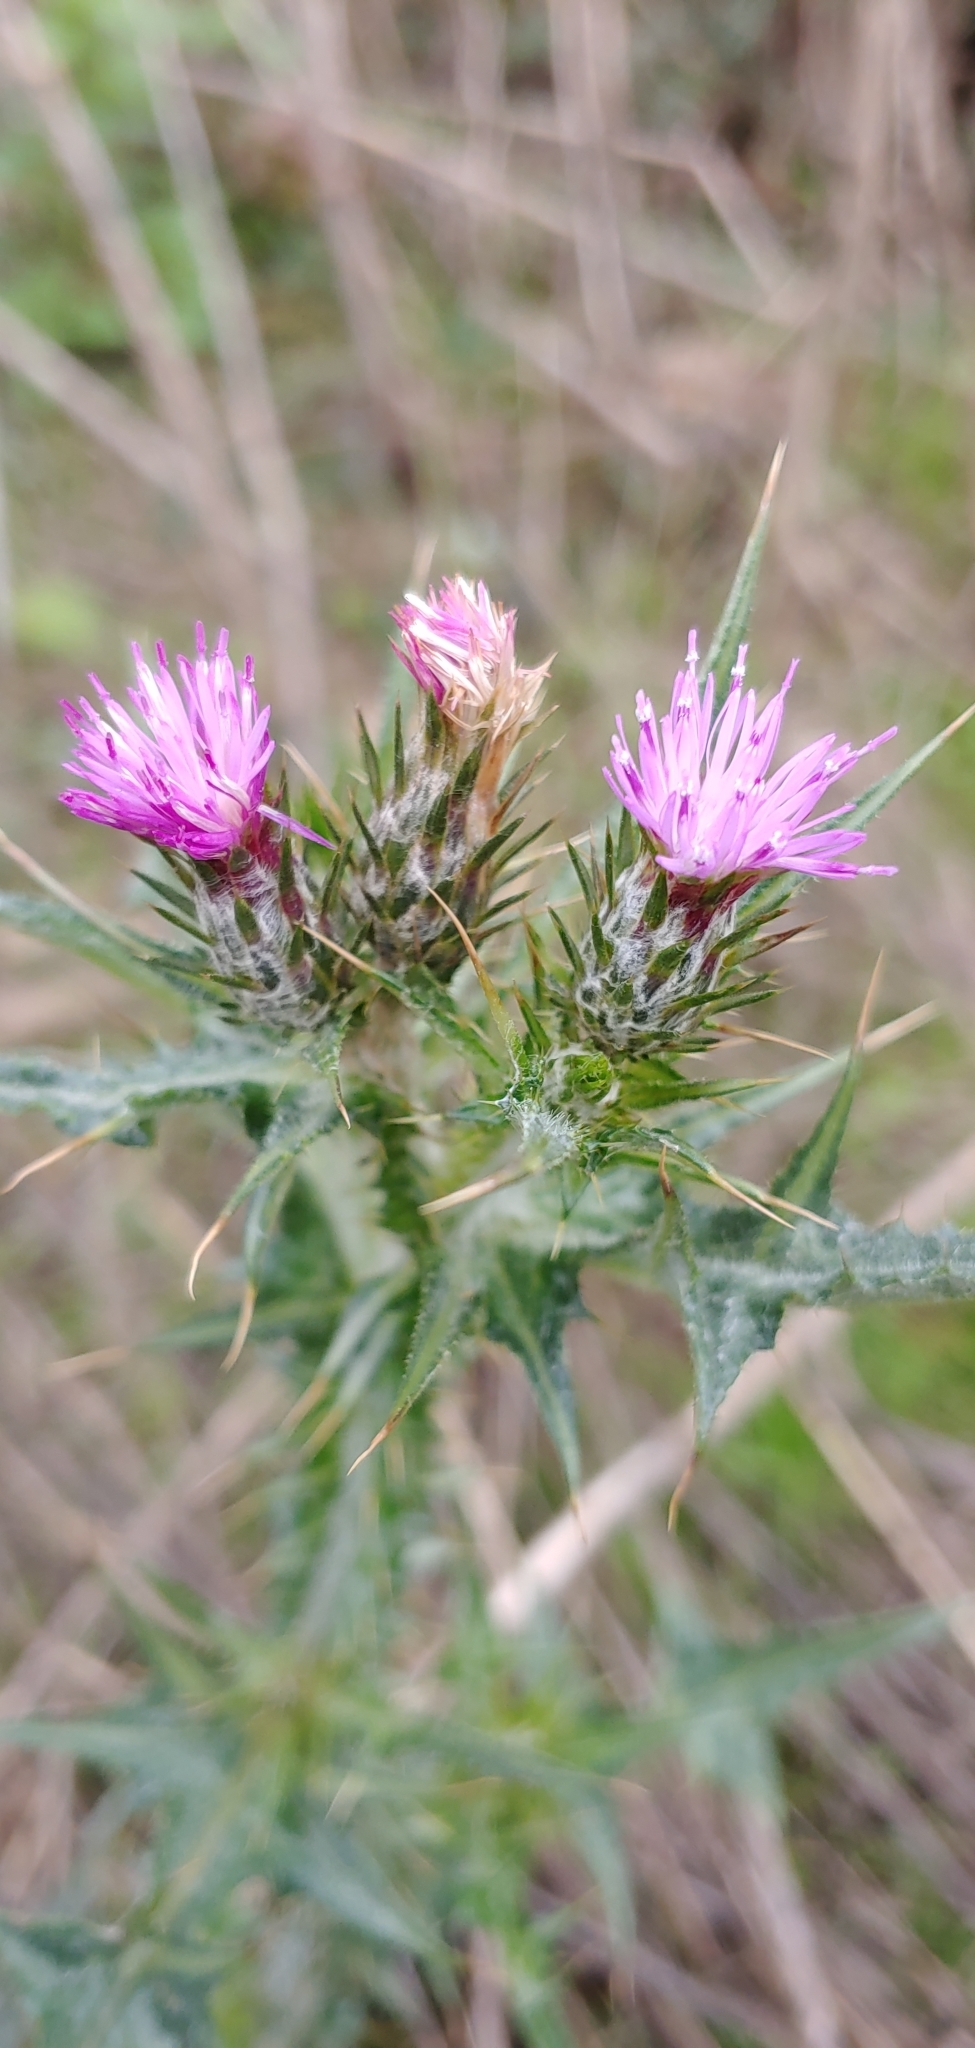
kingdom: Plantae
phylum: Tracheophyta
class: Magnoliopsida
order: Asterales
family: Asteraceae
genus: Carduus
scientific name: Carduus pycnocephalus
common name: Plymouth thistle
